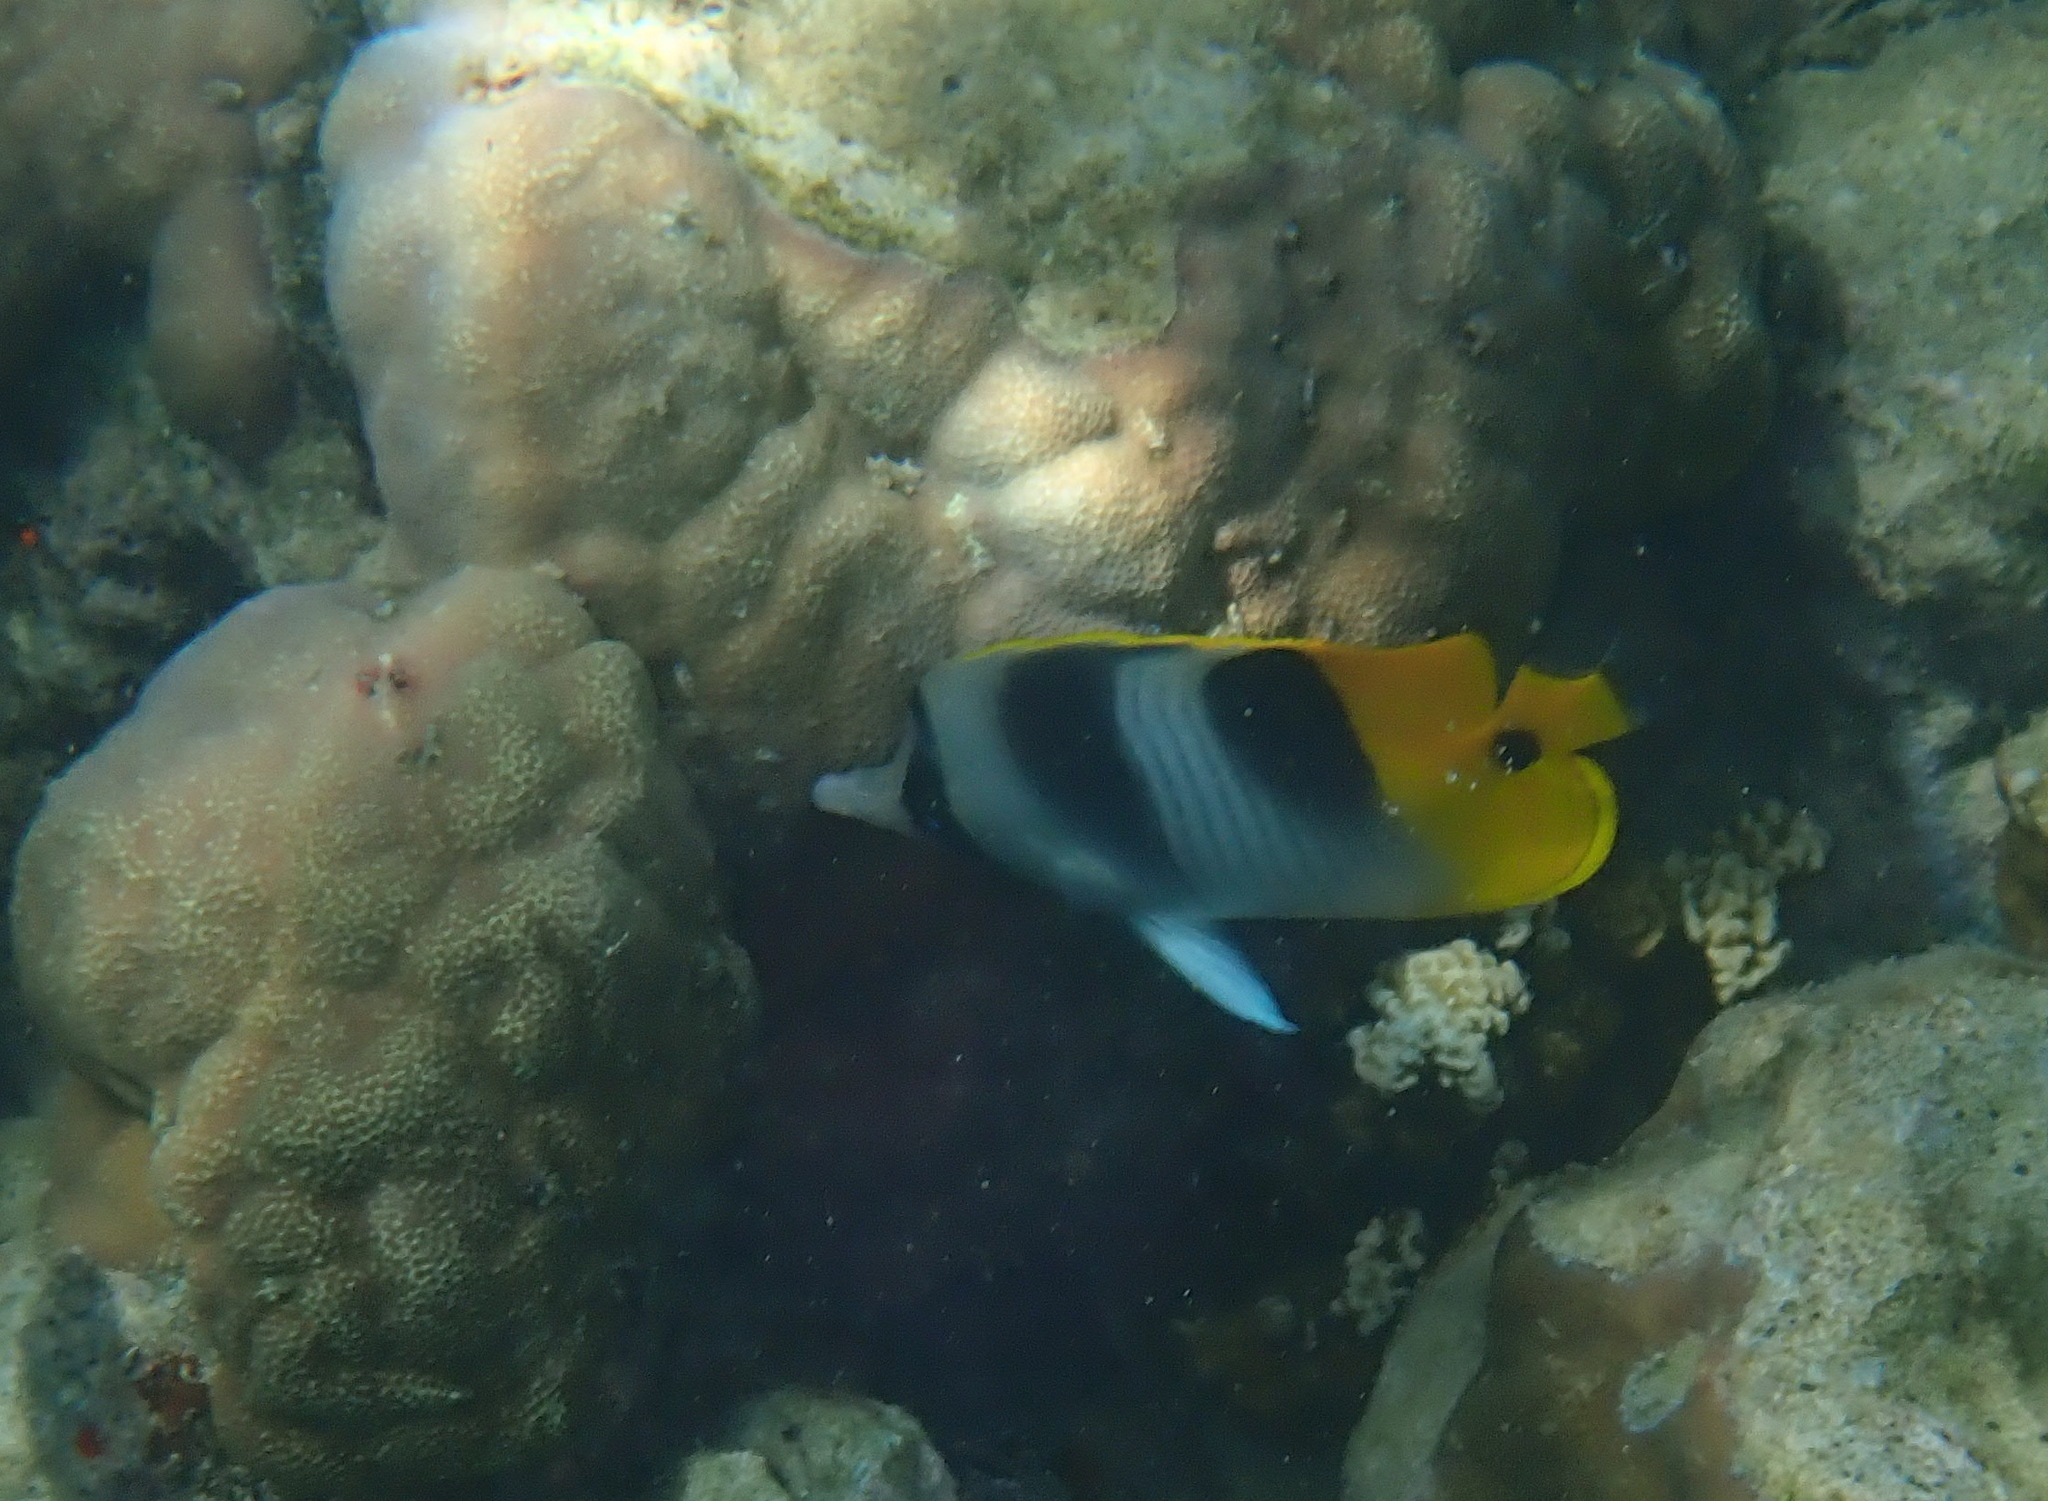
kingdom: Animalia
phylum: Chordata
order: Perciformes
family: Chaetodontidae
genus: Chaetodon
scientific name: Chaetodon ulietensis
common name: Pacific double-saddle butterflyfish
